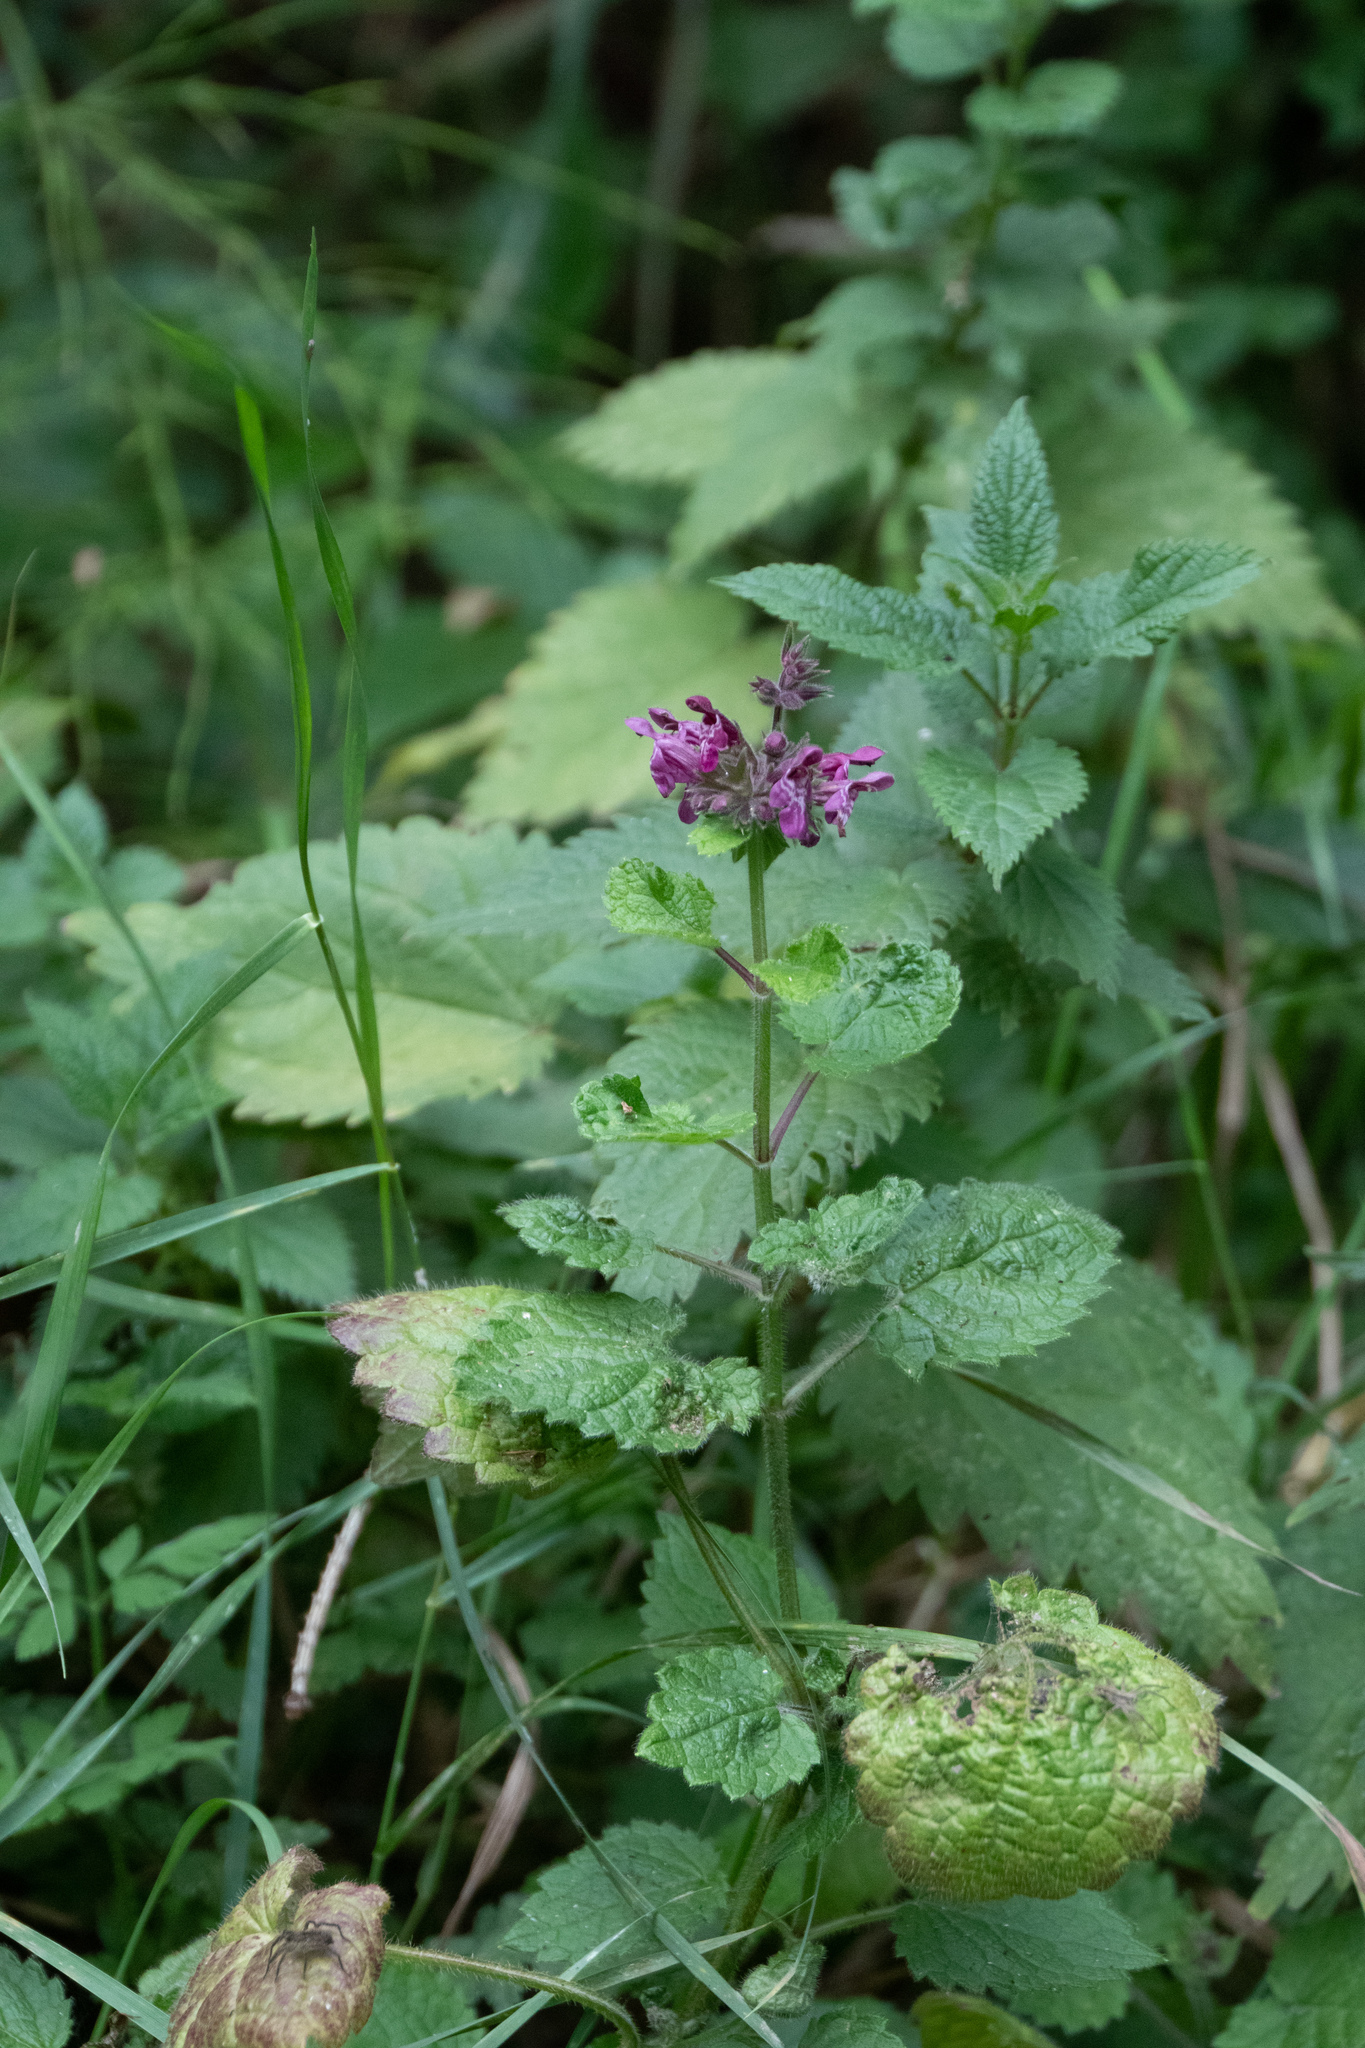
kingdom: Plantae
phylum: Tracheophyta
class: Magnoliopsida
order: Lamiales
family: Lamiaceae
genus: Stachys
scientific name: Stachys sylvatica
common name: Hedge woundwort
